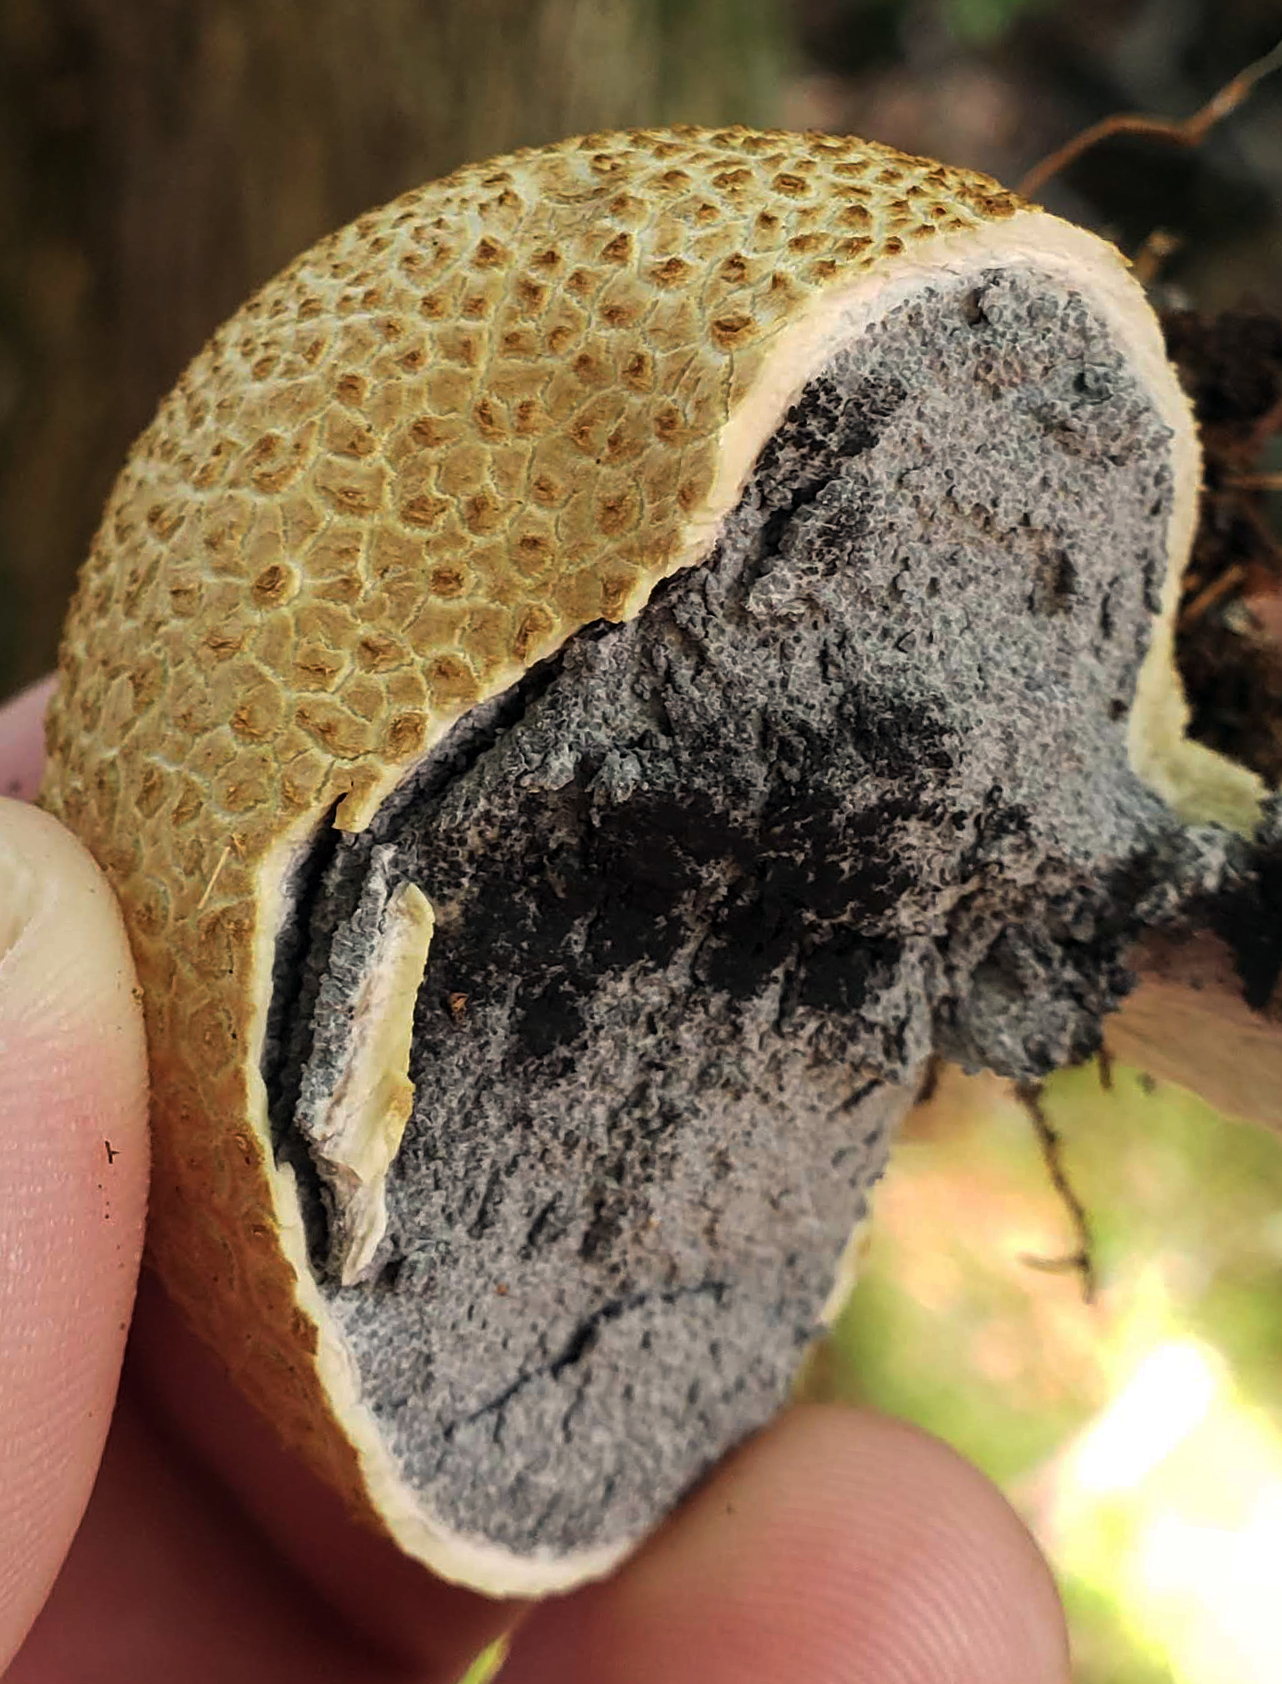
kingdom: Fungi
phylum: Basidiomycota
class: Agaricomycetes
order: Boletales
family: Sclerodermataceae
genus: Scleroderma
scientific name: Scleroderma citrinum
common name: Common earthball
